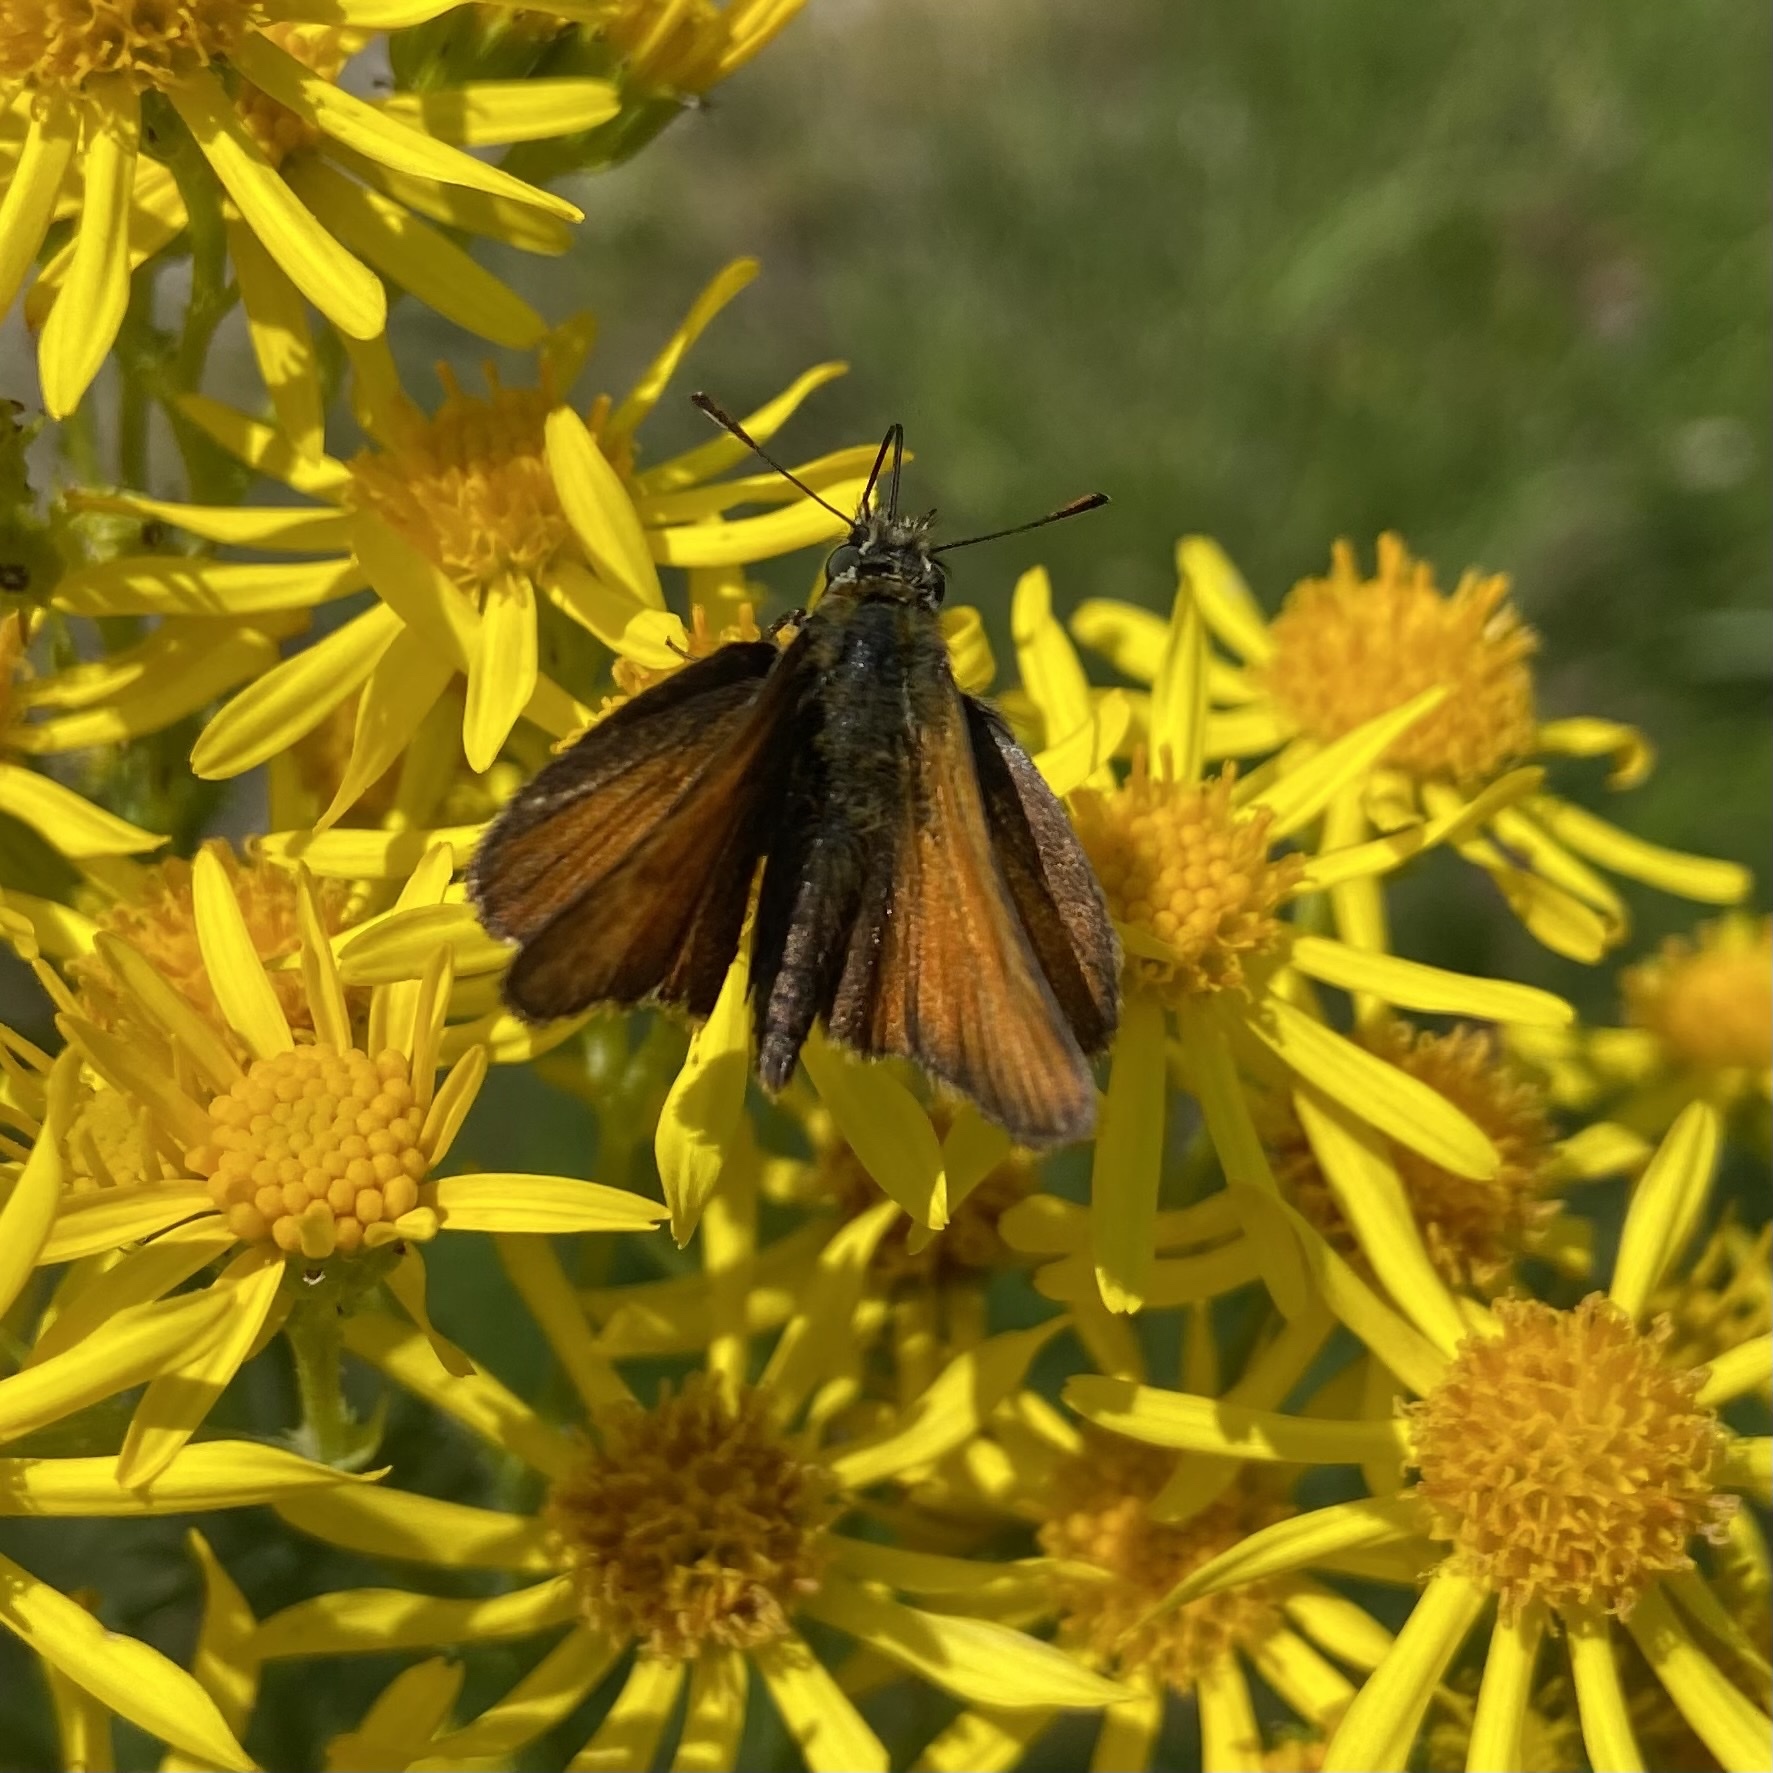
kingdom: Animalia
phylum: Arthropoda
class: Insecta
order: Lepidoptera
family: Hesperiidae
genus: Thymelicus
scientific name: Thymelicus sylvestris
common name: Small skipper
